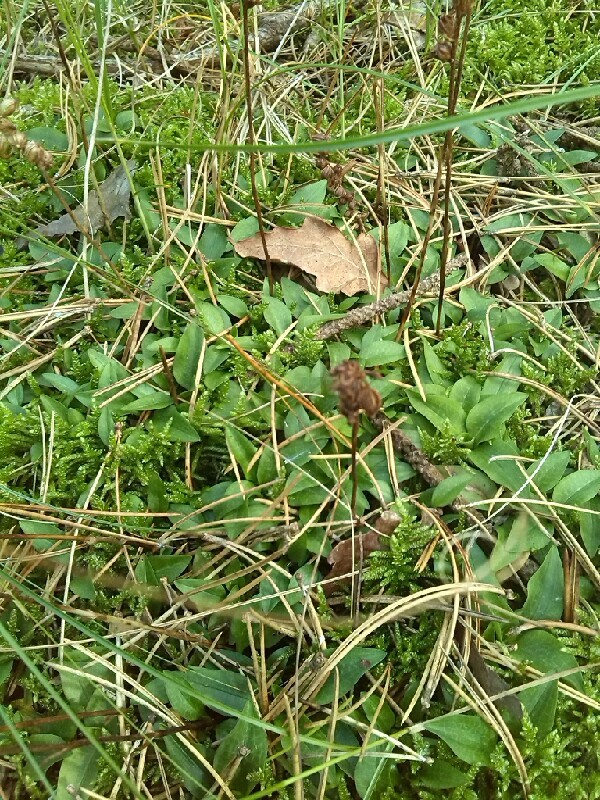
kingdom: Plantae
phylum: Tracheophyta
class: Liliopsida
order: Asparagales
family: Orchidaceae
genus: Goodyera
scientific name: Goodyera repens
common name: Creeping lady's-tresses
